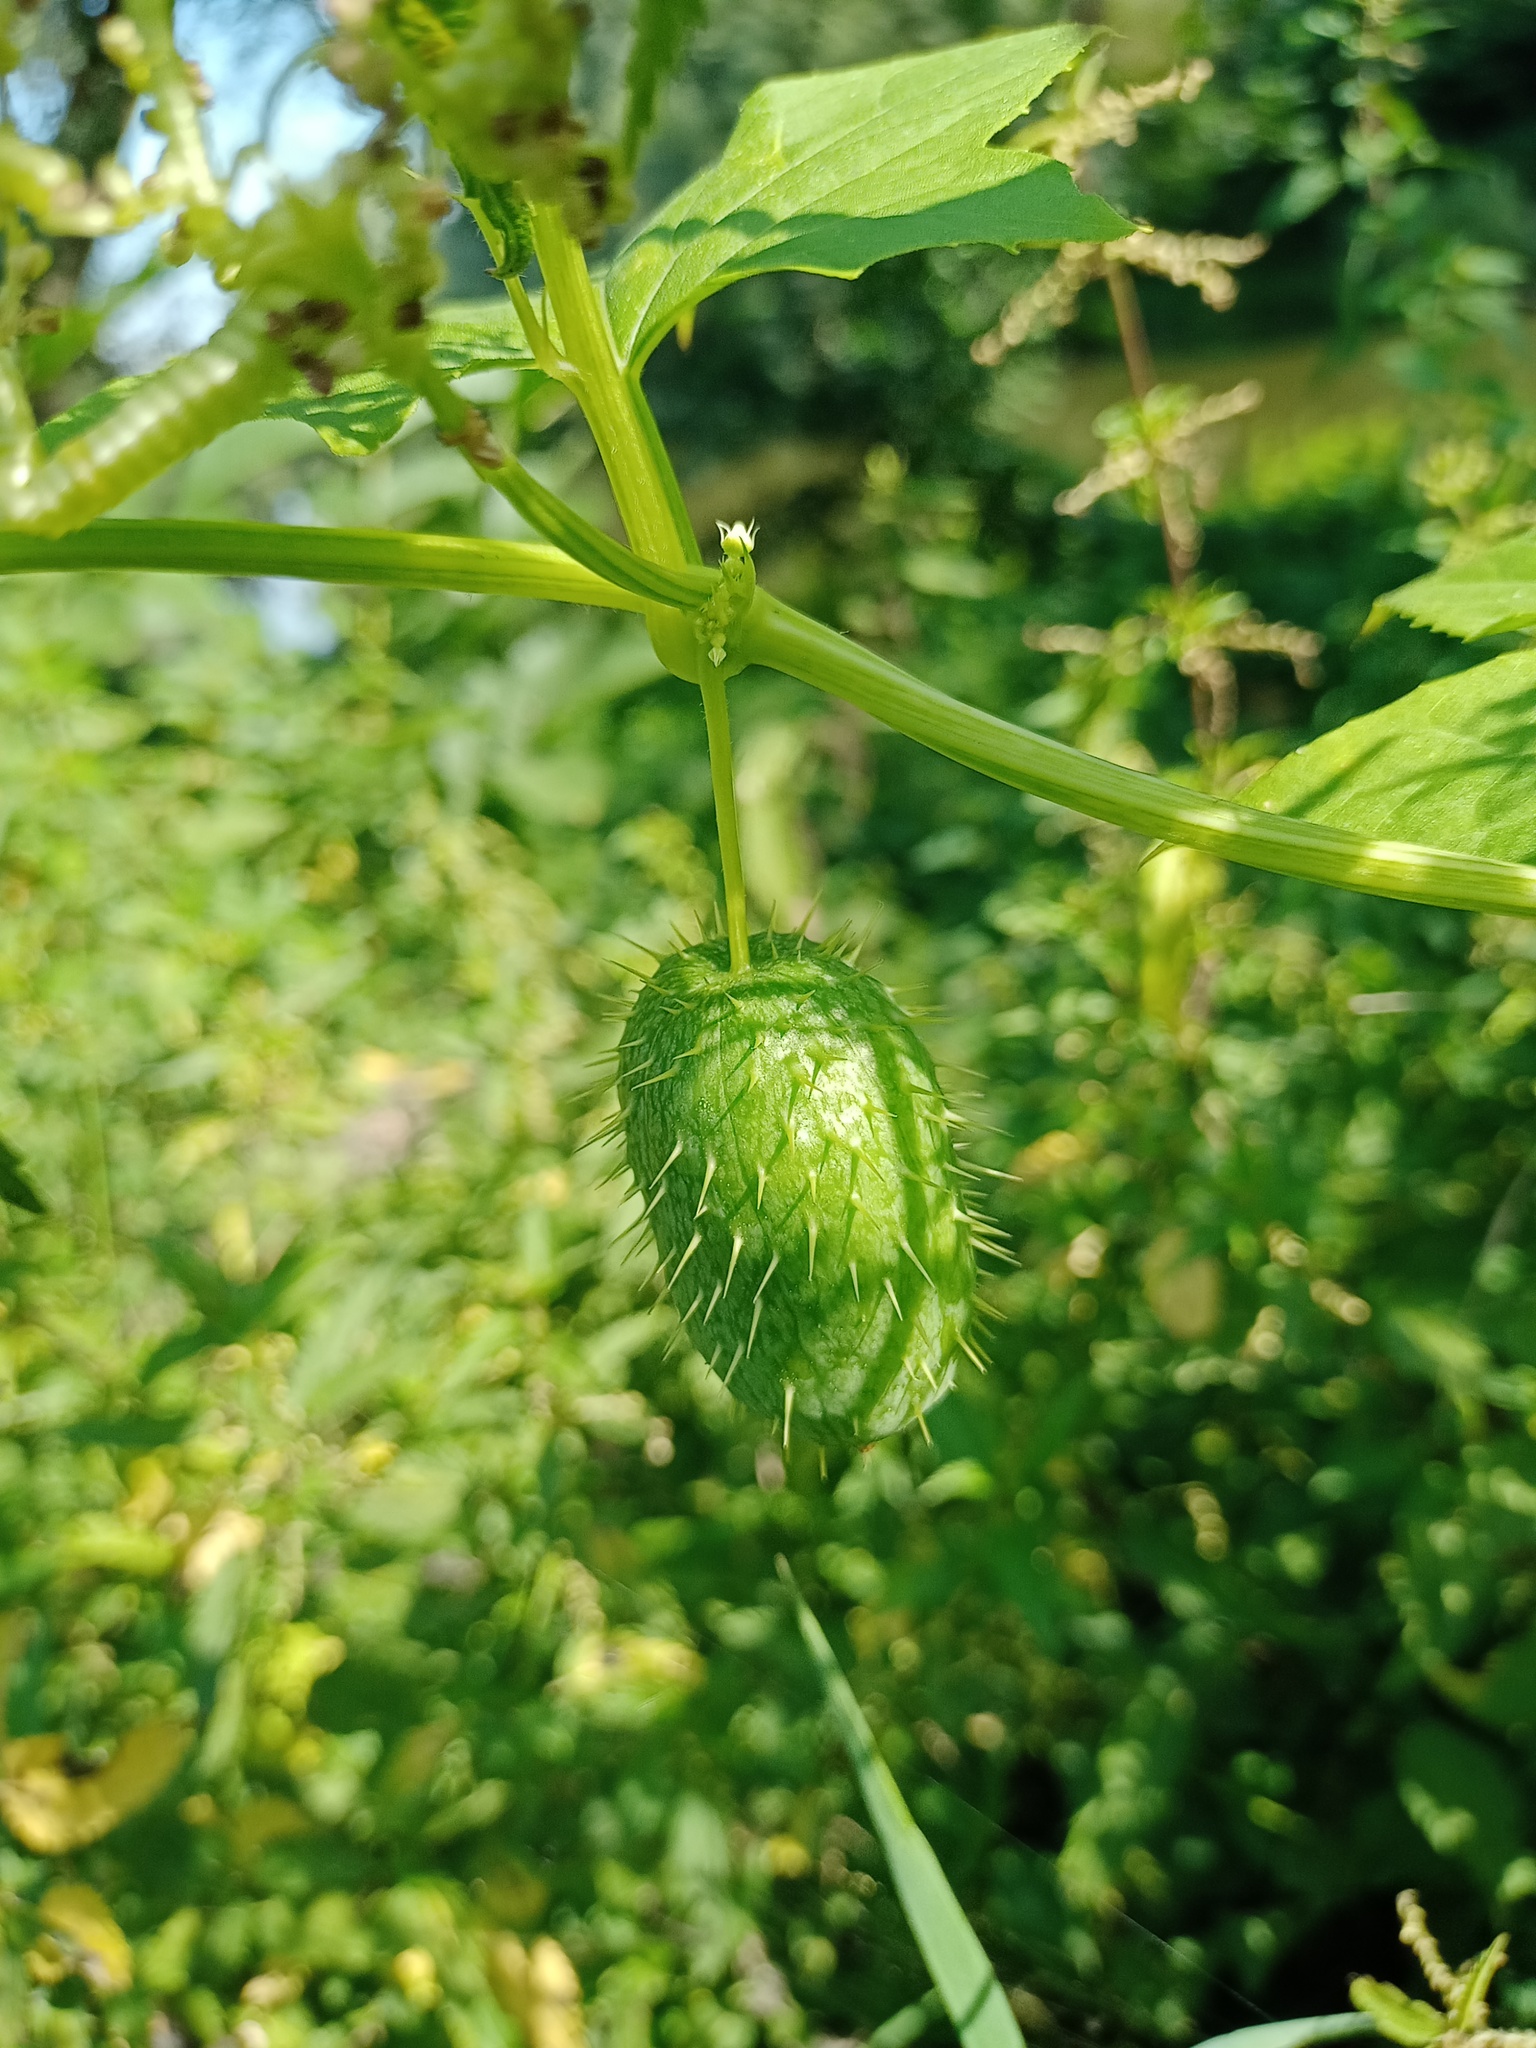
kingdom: Plantae
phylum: Tracheophyta
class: Magnoliopsida
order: Cucurbitales
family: Cucurbitaceae
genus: Echinocystis
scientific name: Echinocystis lobata
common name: Wild cucumber
